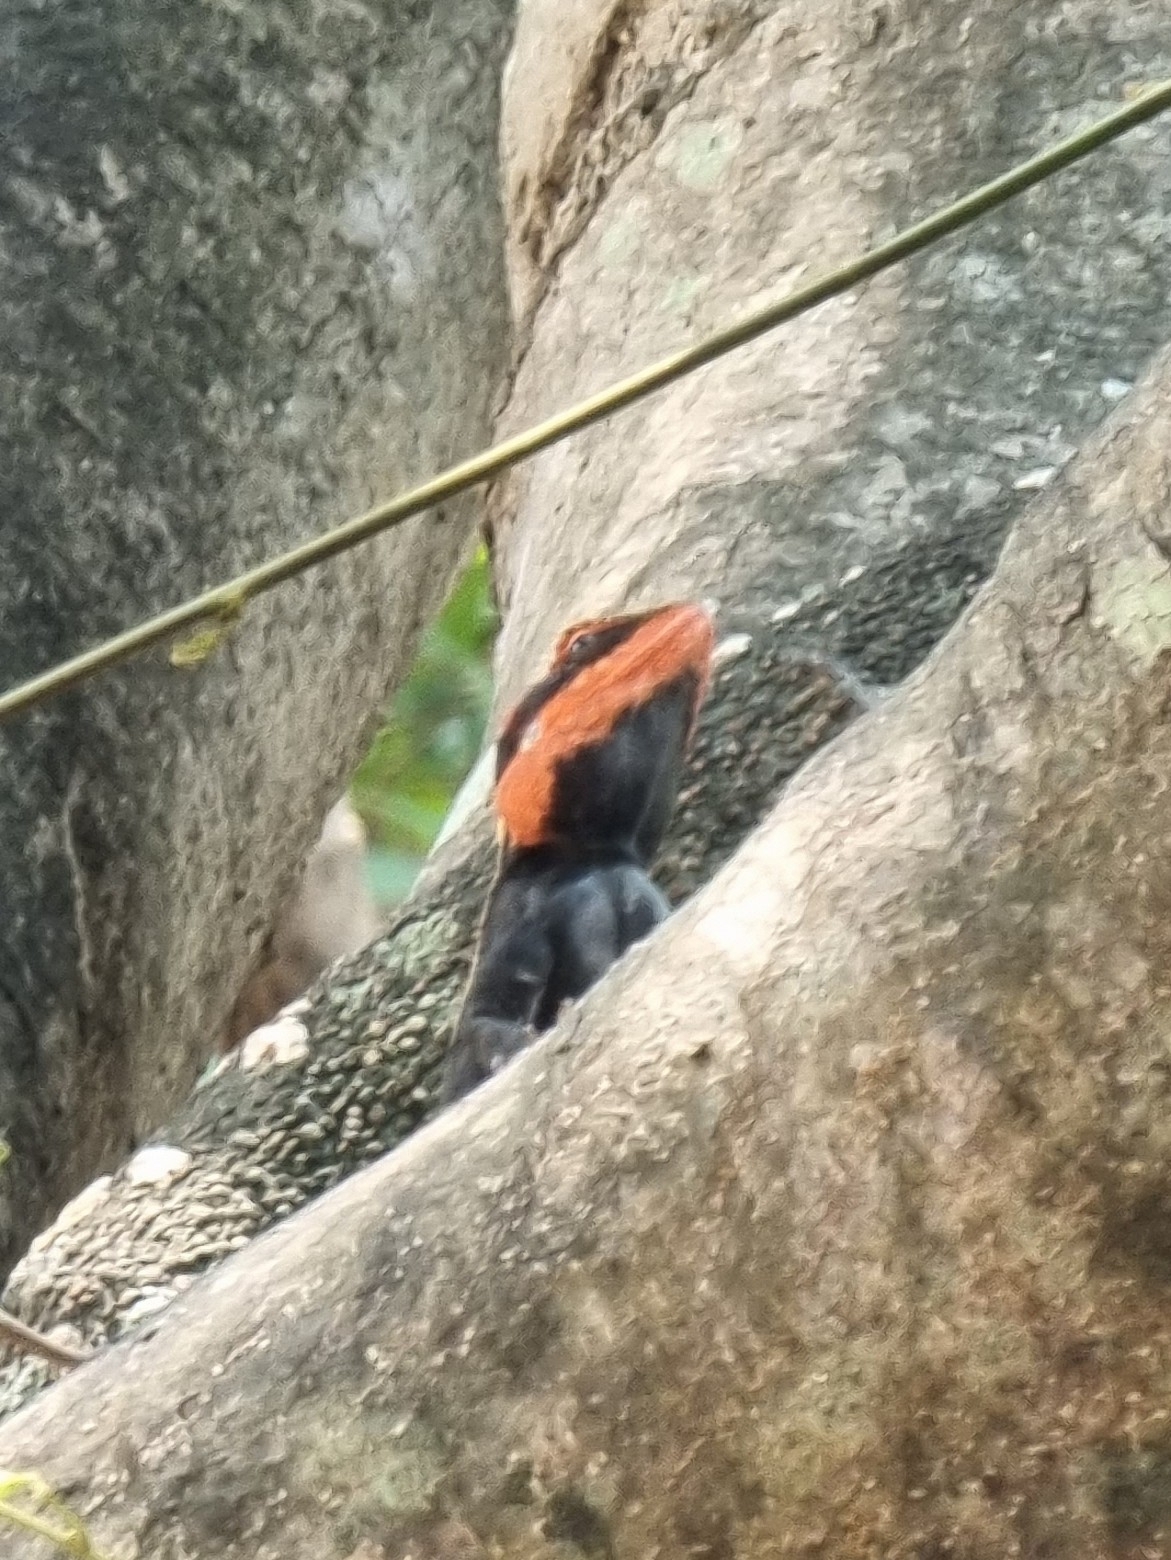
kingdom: Animalia
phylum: Chordata
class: Squamata
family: Agamidae
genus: Psammophilus
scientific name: Psammophilus dorsalis
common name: South indian rock agama
